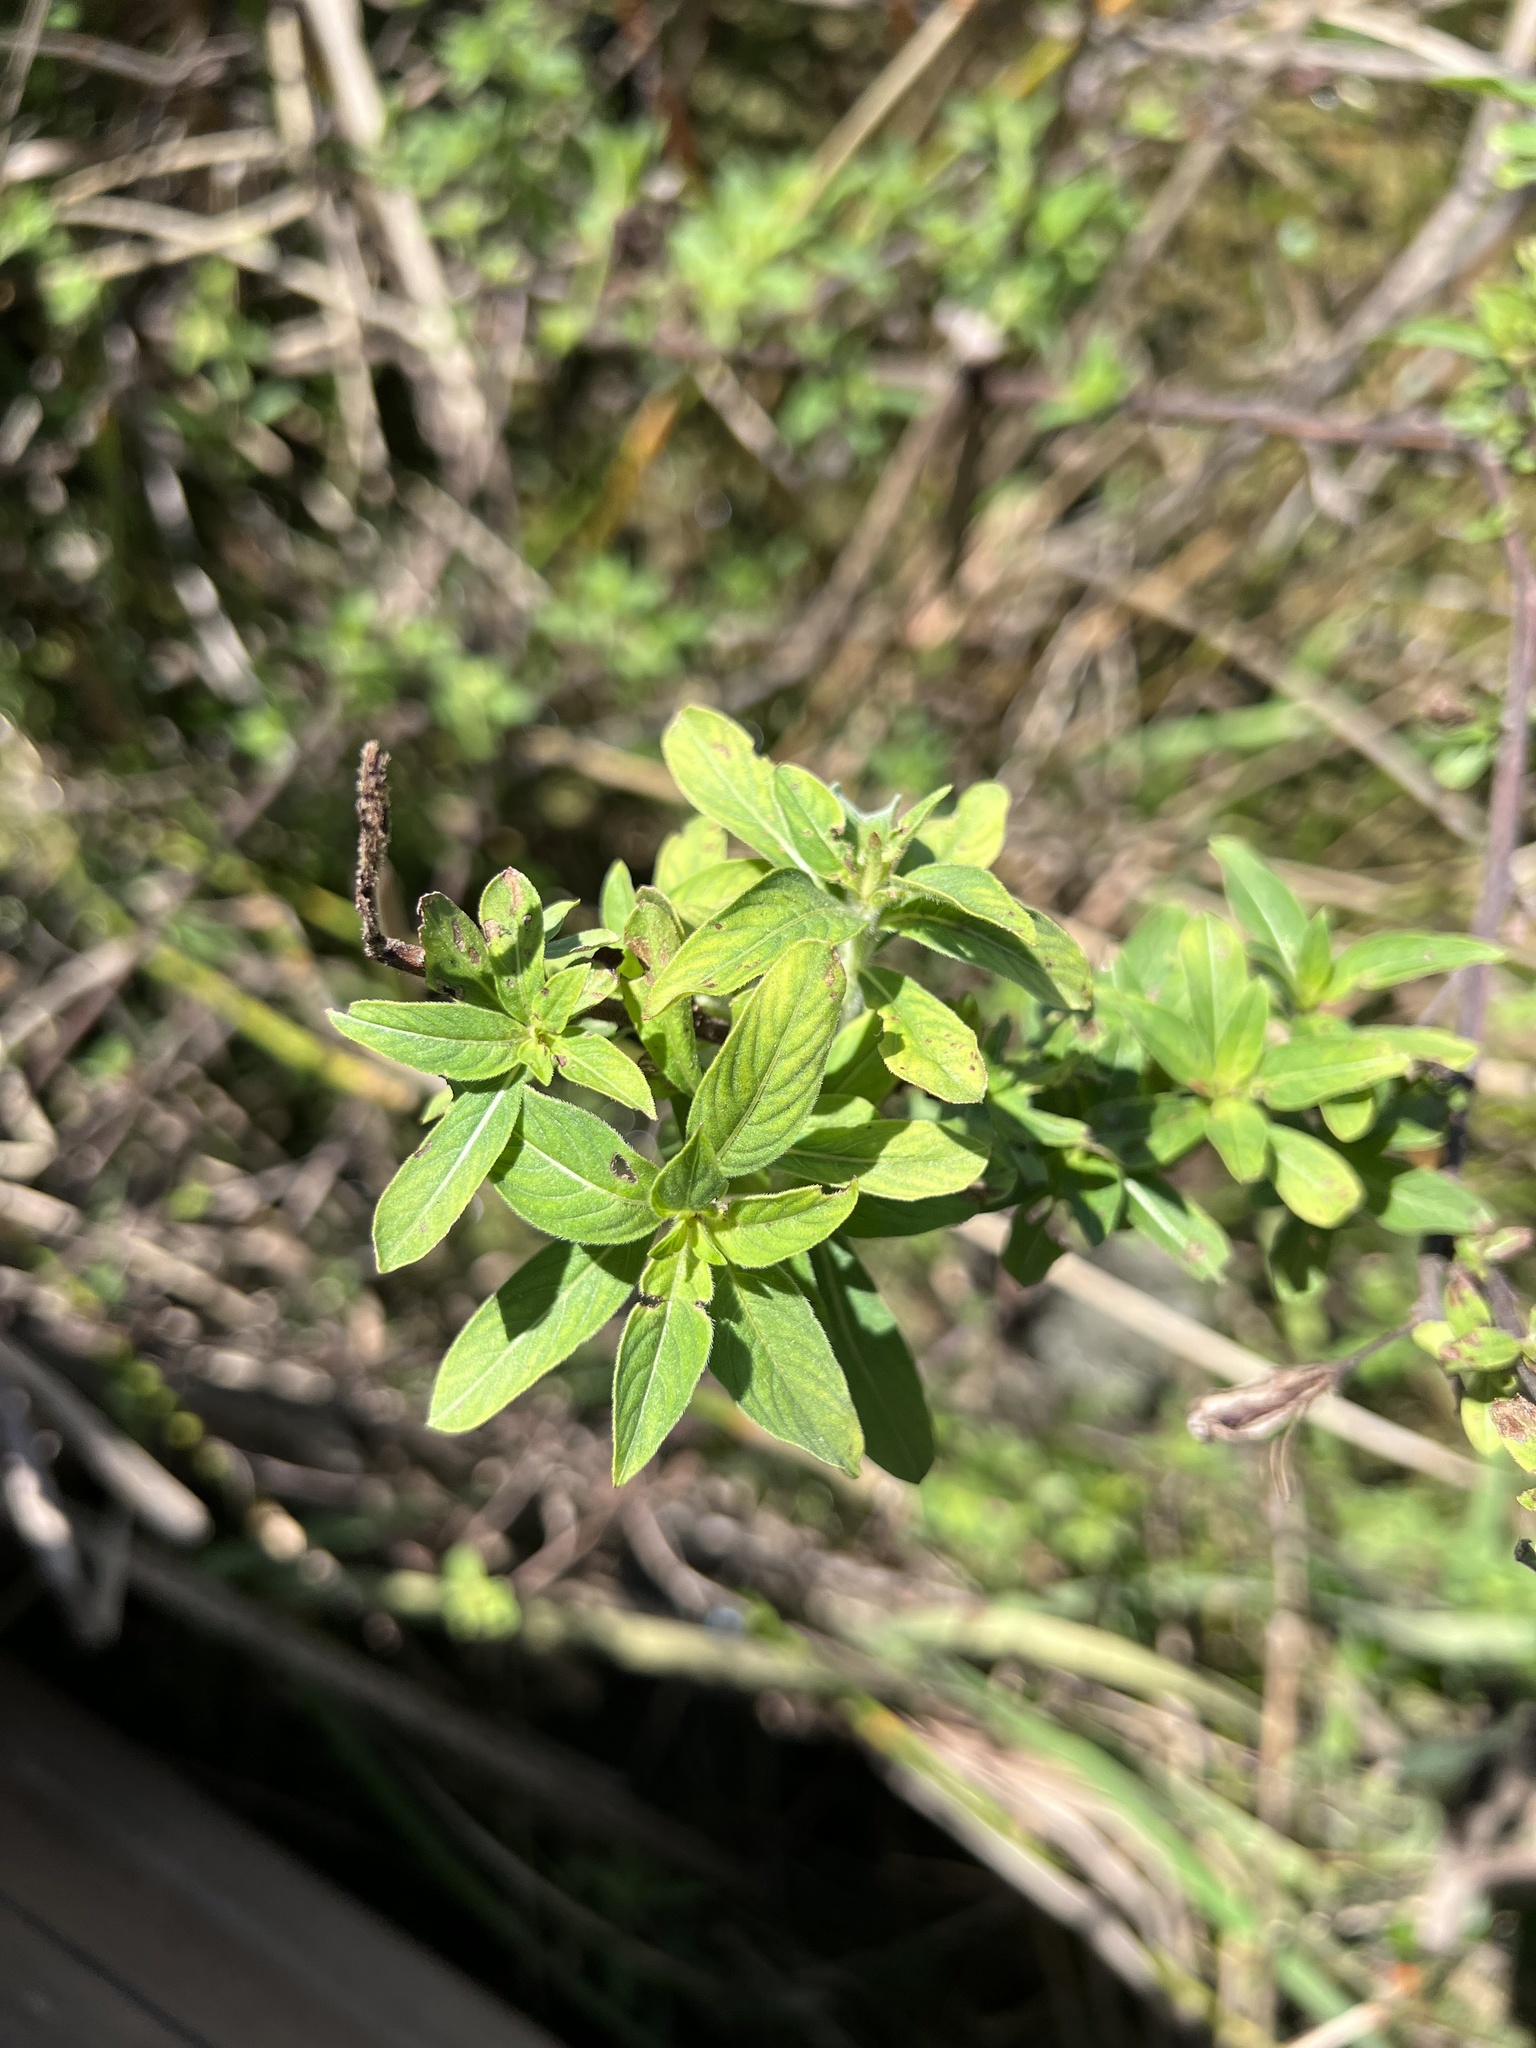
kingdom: Plantae
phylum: Tracheophyta
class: Magnoliopsida
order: Myrtales
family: Onagraceae
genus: Ludwigia
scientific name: Ludwigia peruviana
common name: Peruvian primrose-willow
